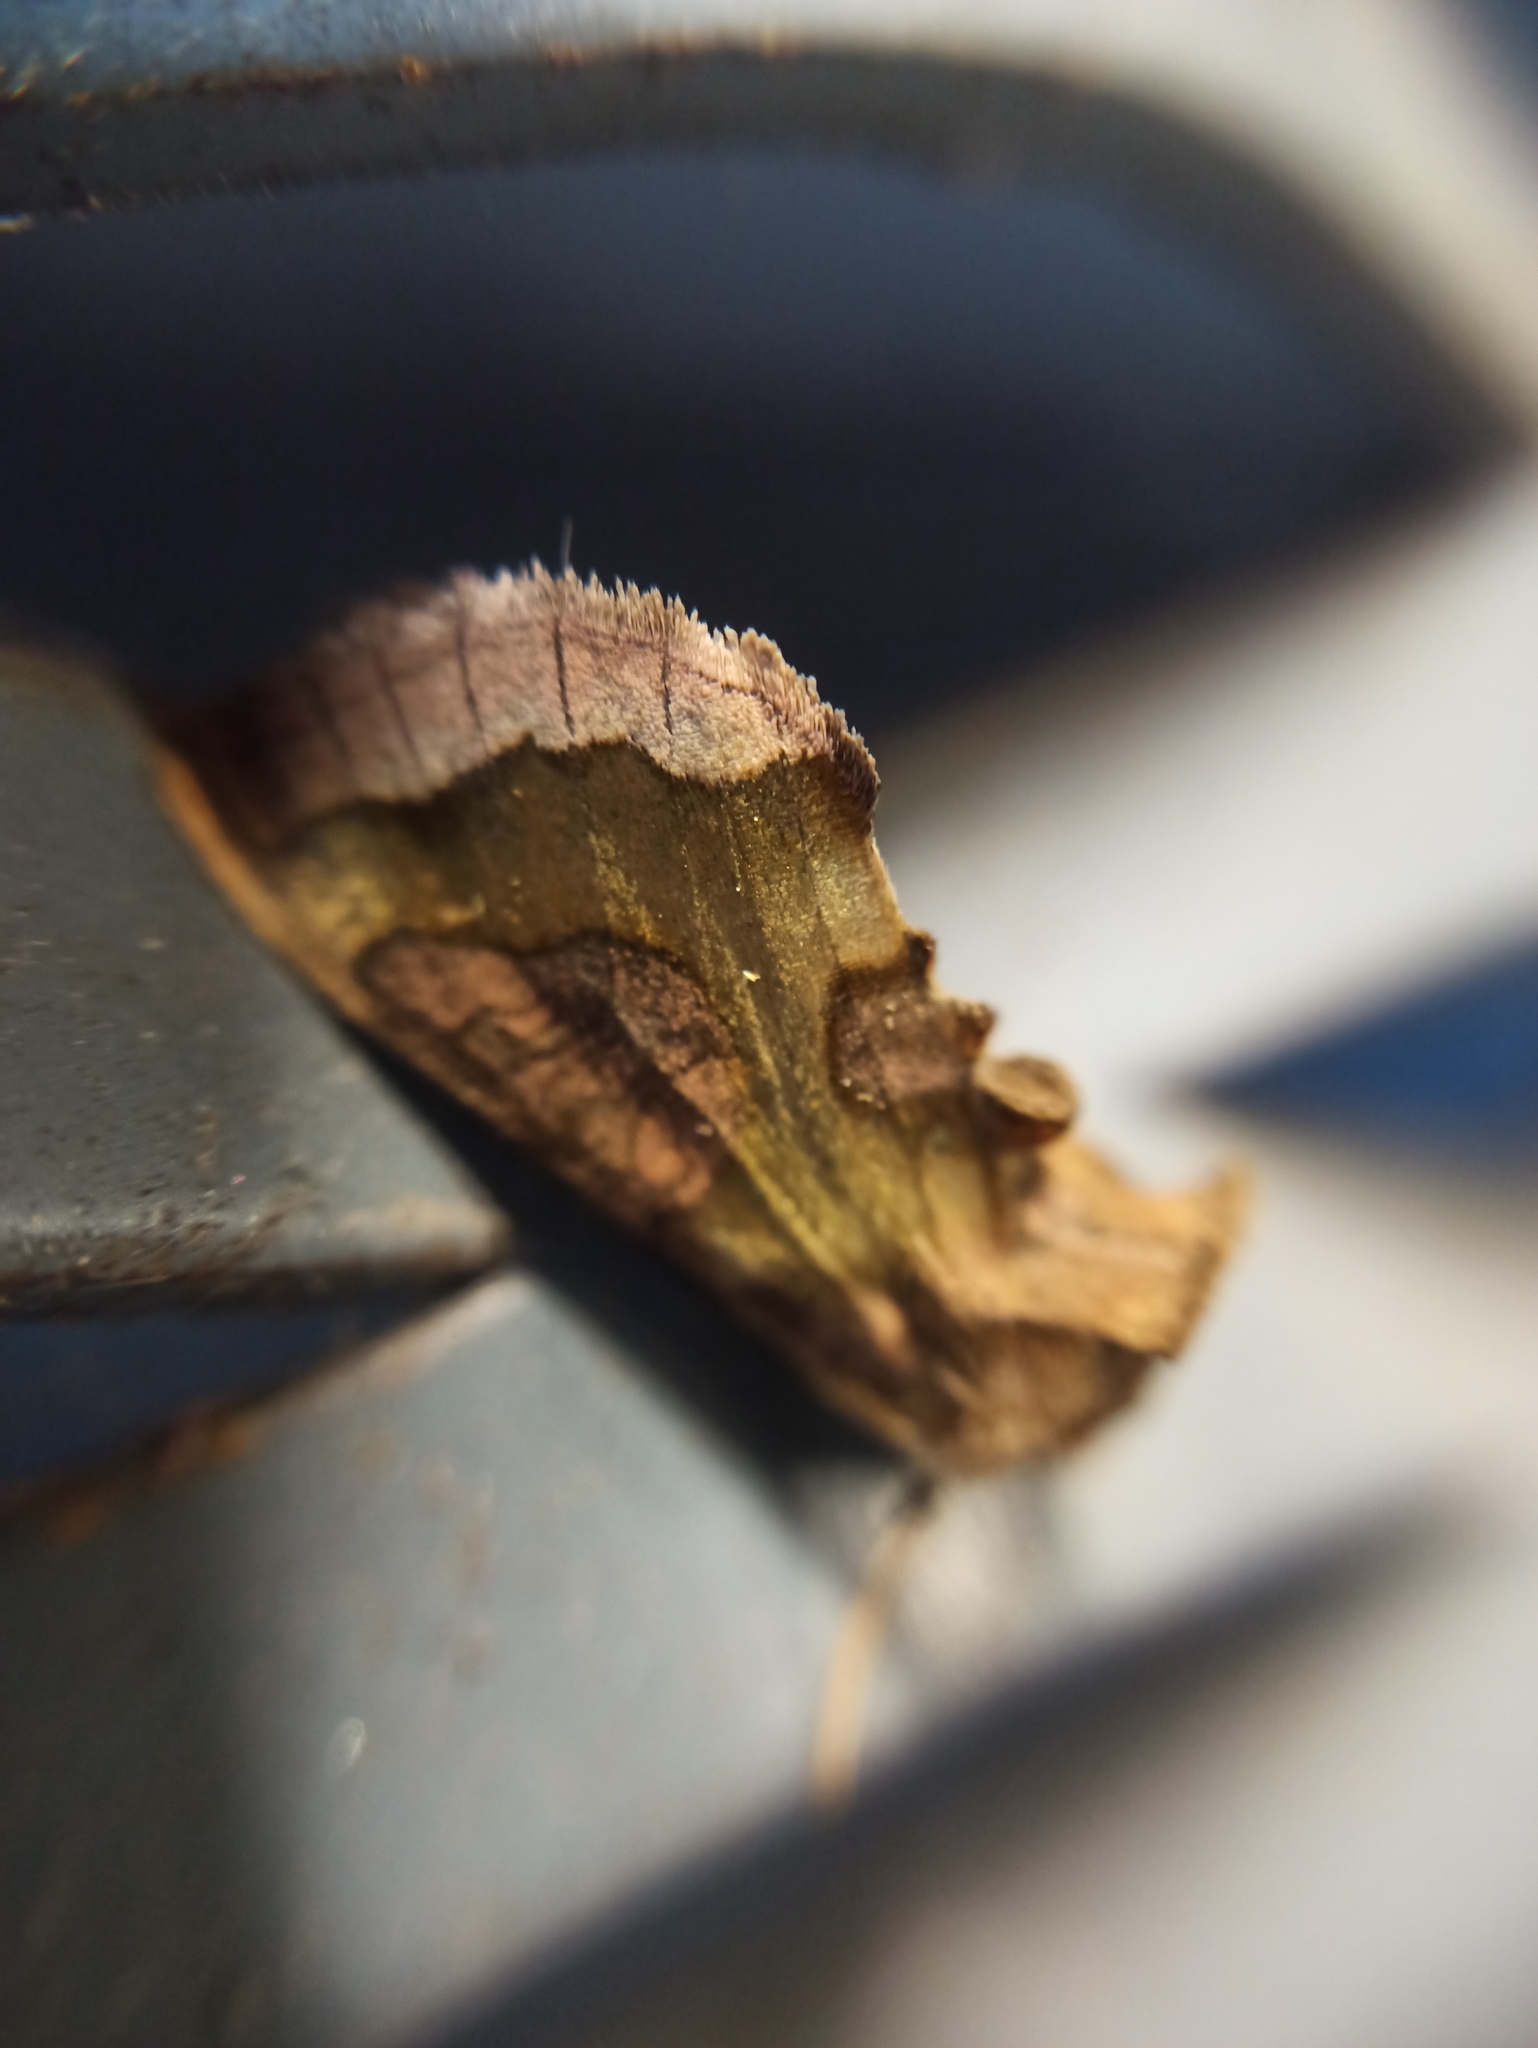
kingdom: Animalia
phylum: Arthropoda
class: Insecta
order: Lepidoptera
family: Noctuidae
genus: Diachrysia
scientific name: Diachrysia stenochrysis
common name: Cryptic burnished brass
